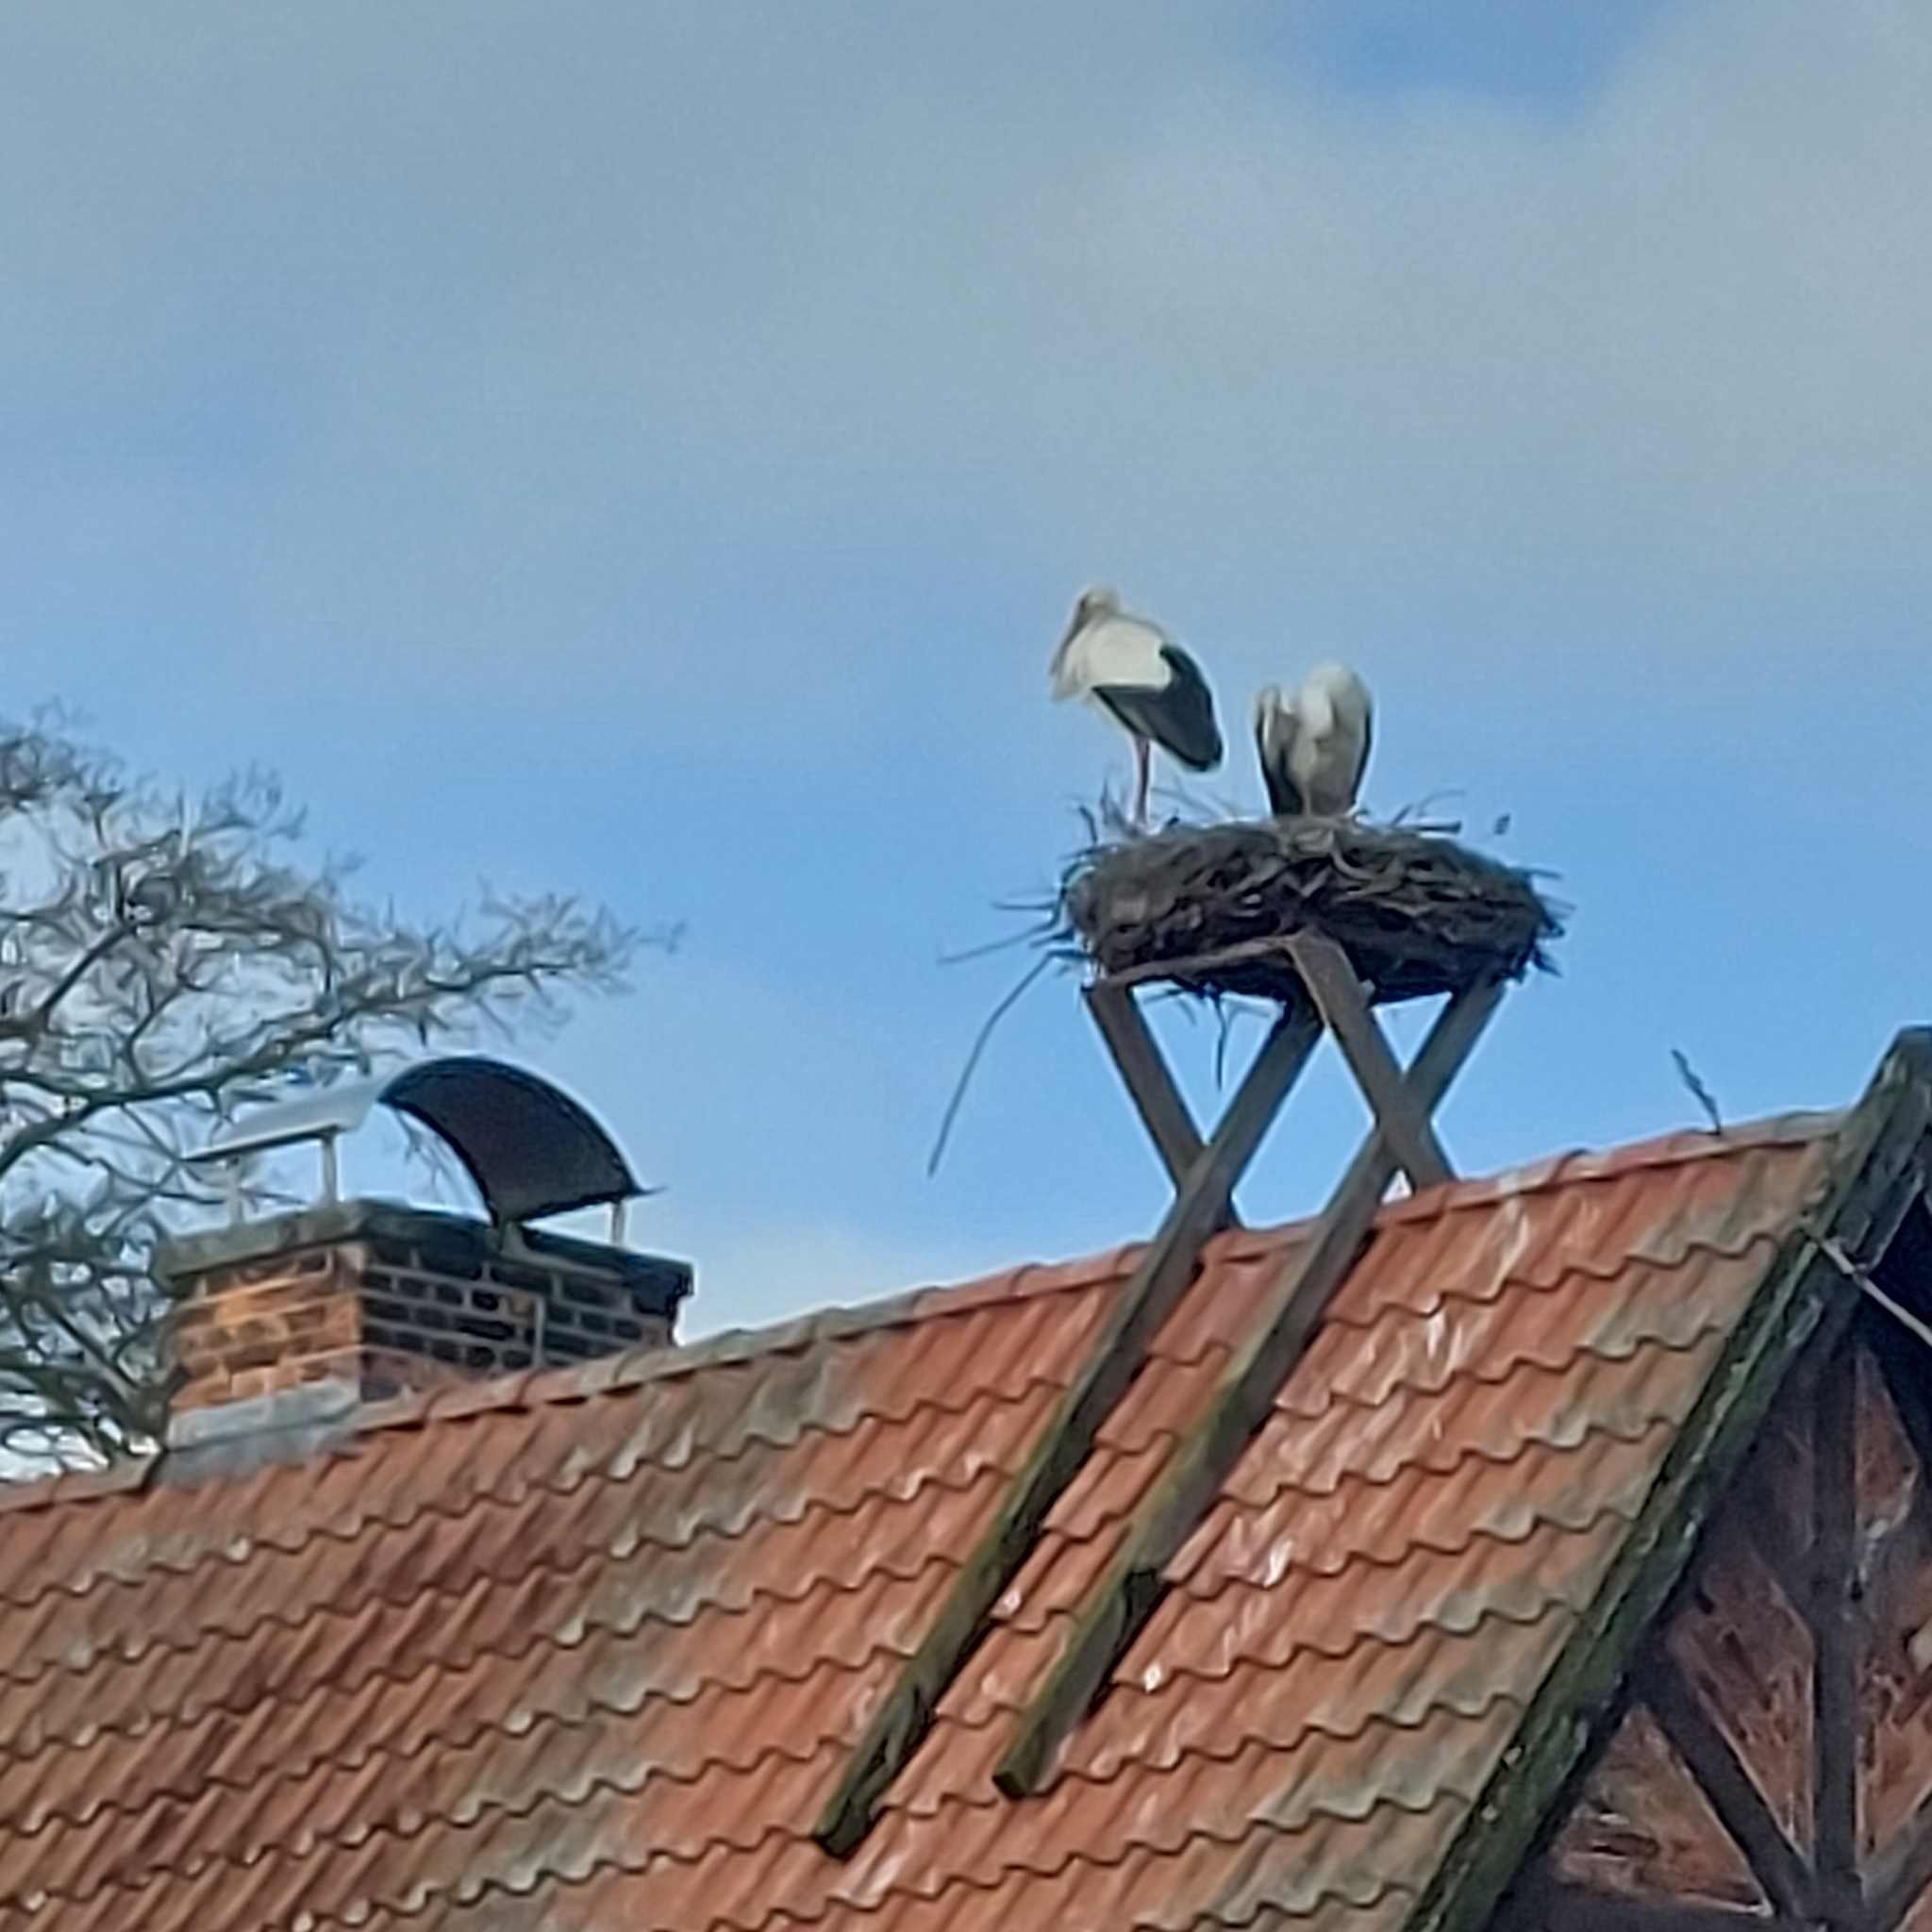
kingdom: Animalia
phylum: Chordata
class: Aves
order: Ciconiiformes
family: Ciconiidae
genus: Ciconia
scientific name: Ciconia ciconia
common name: White stork
